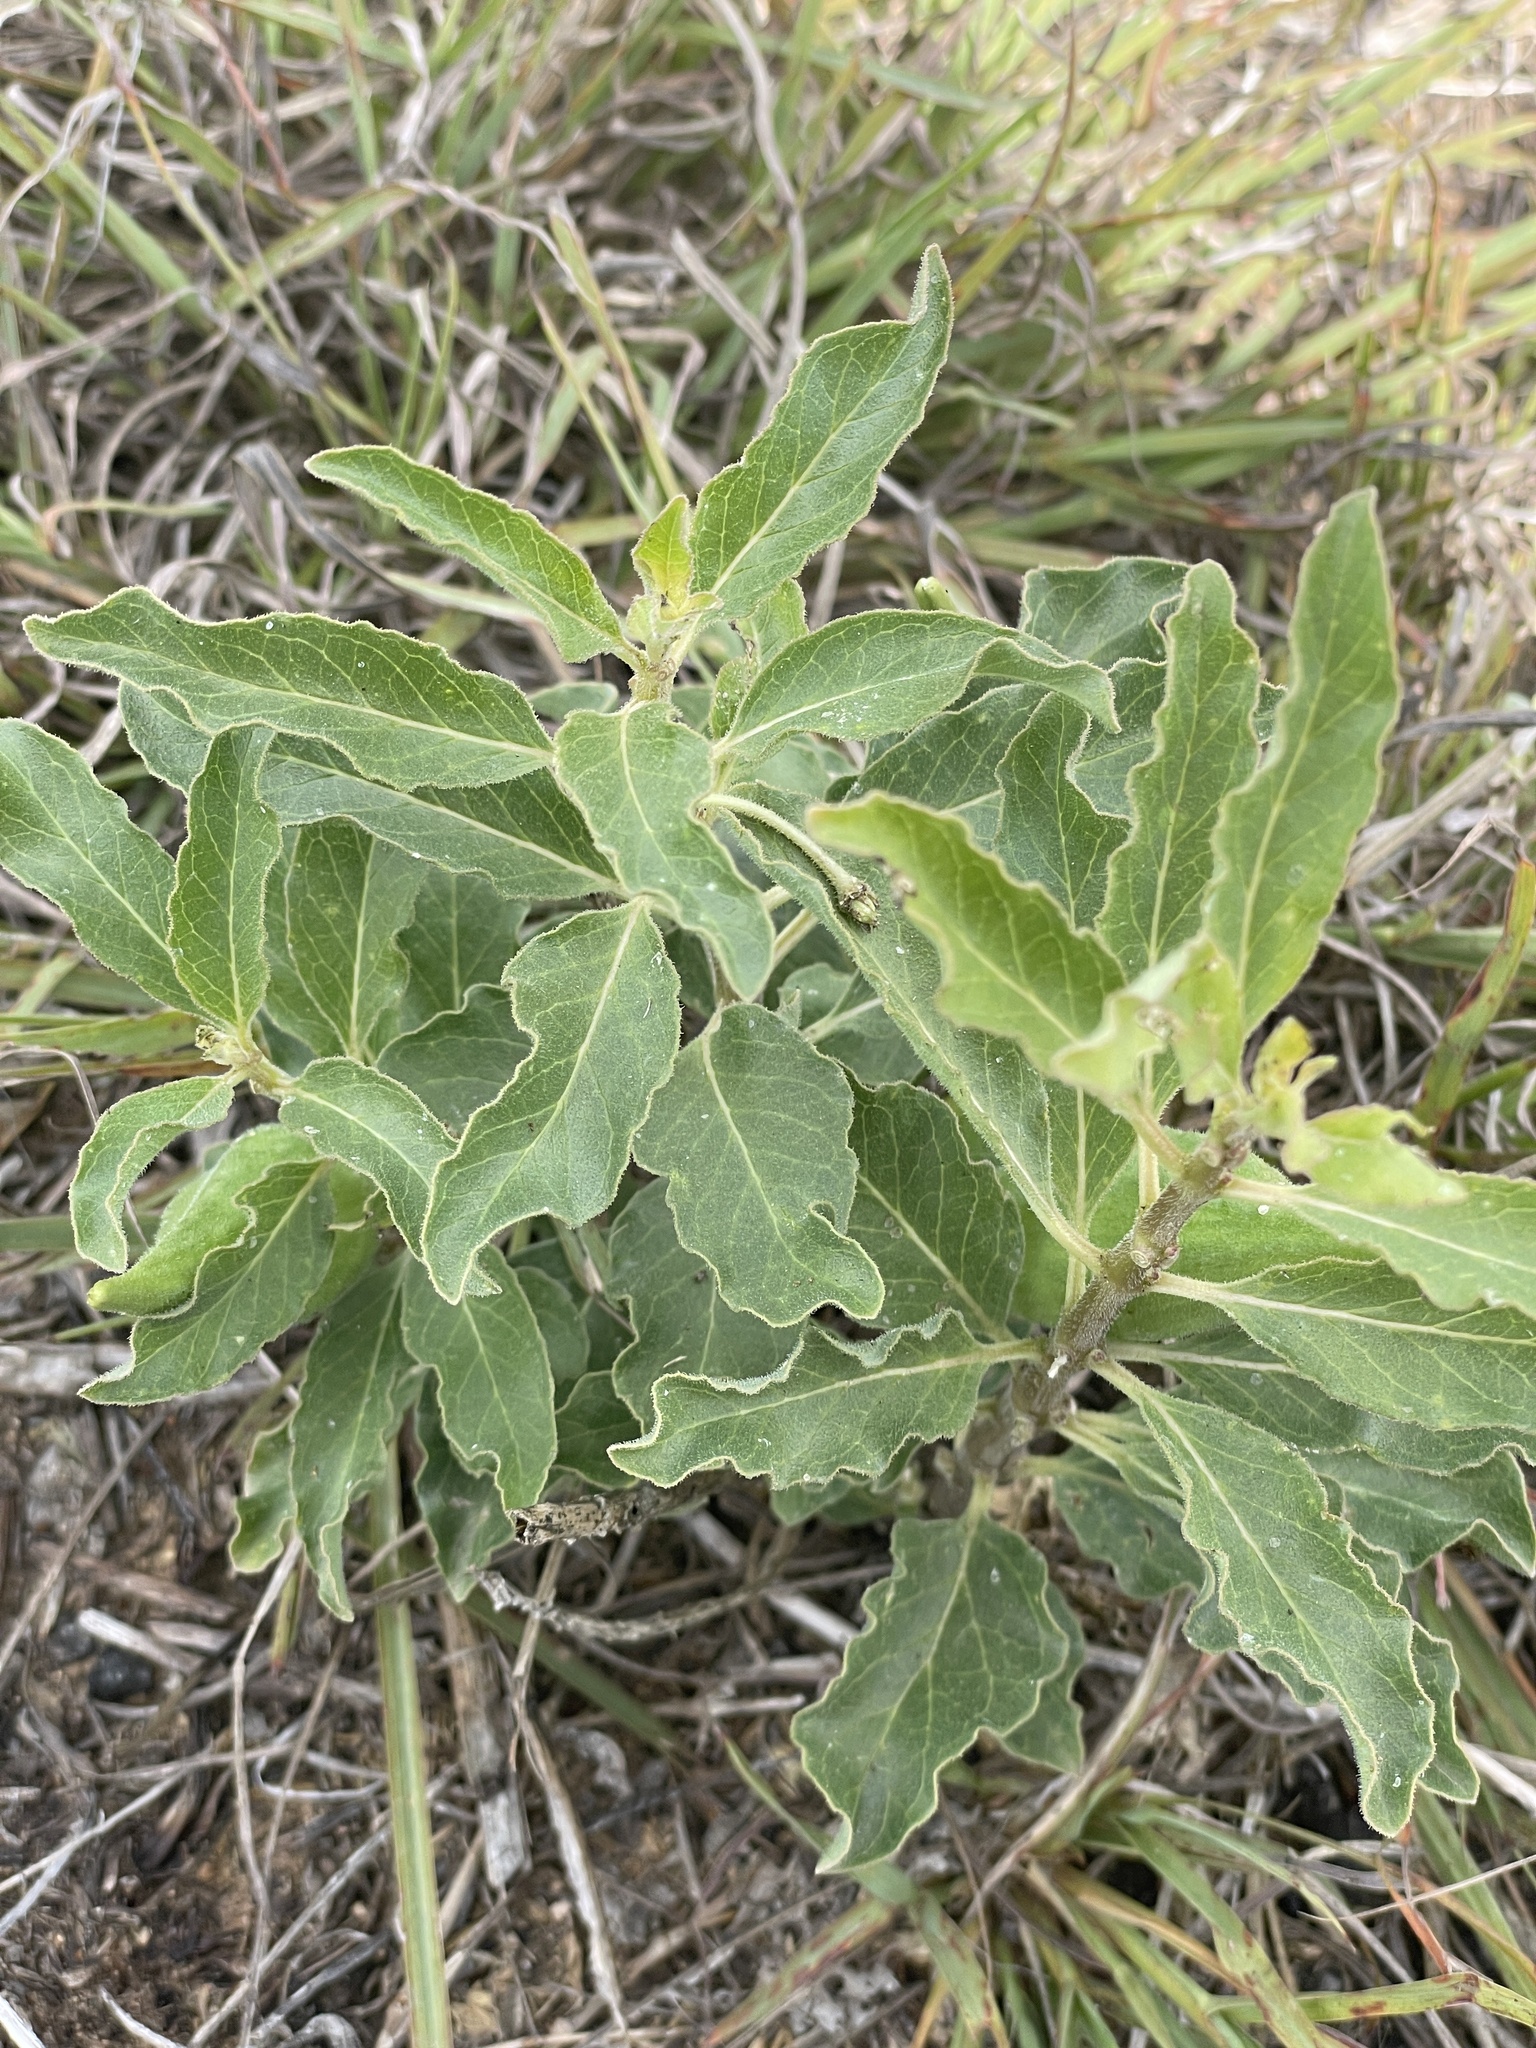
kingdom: Plantae
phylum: Tracheophyta
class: Magnoliopsida
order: Gentianales
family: Apocynaceae
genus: Asclepias
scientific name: Asclepias oenotheroides
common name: Zizotes milkweed
